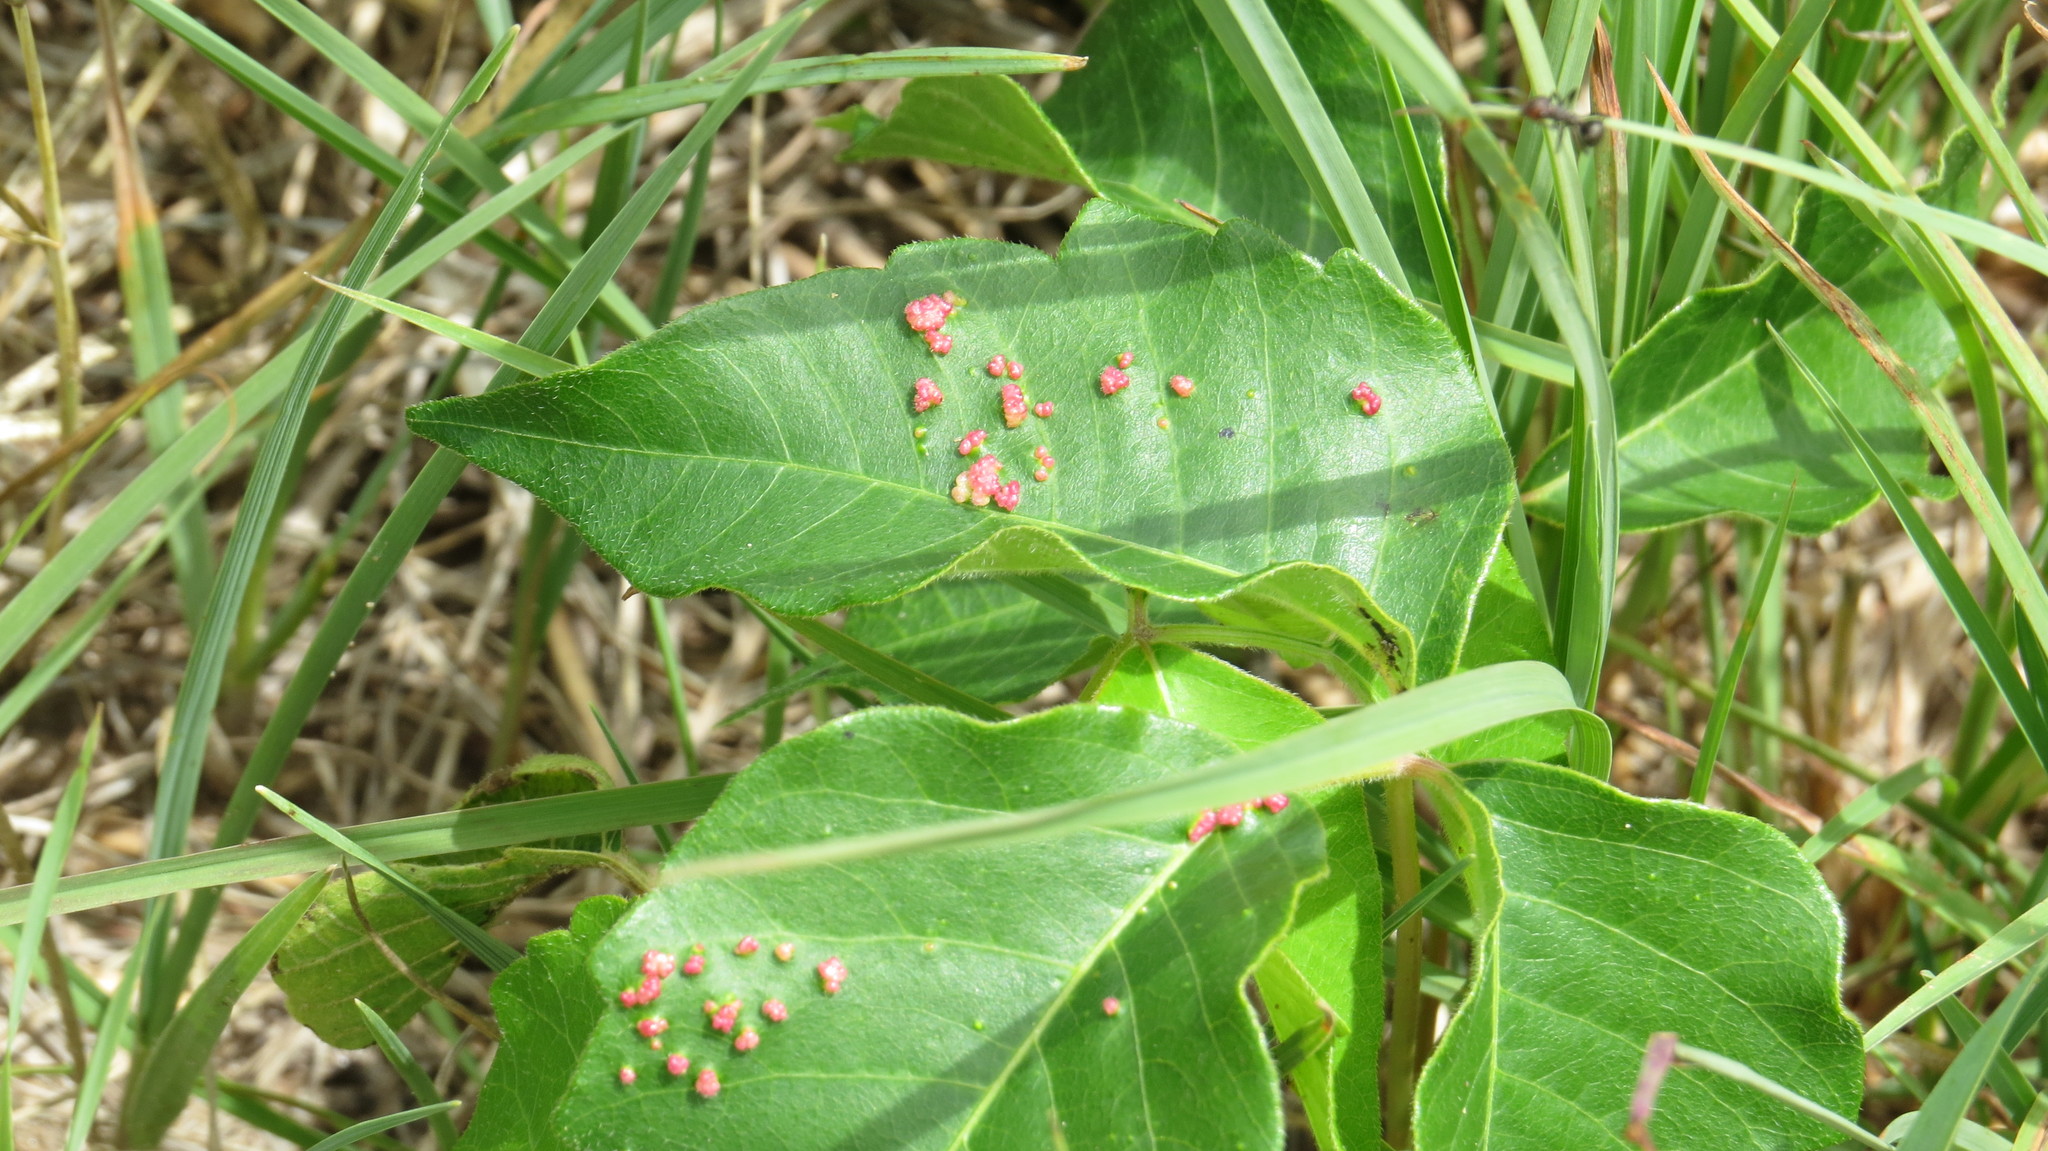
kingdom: Animalia
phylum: Arthropoda
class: Arachnida
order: Trombidiformes
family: Eriophyidae
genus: Aculops
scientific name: Aculops
